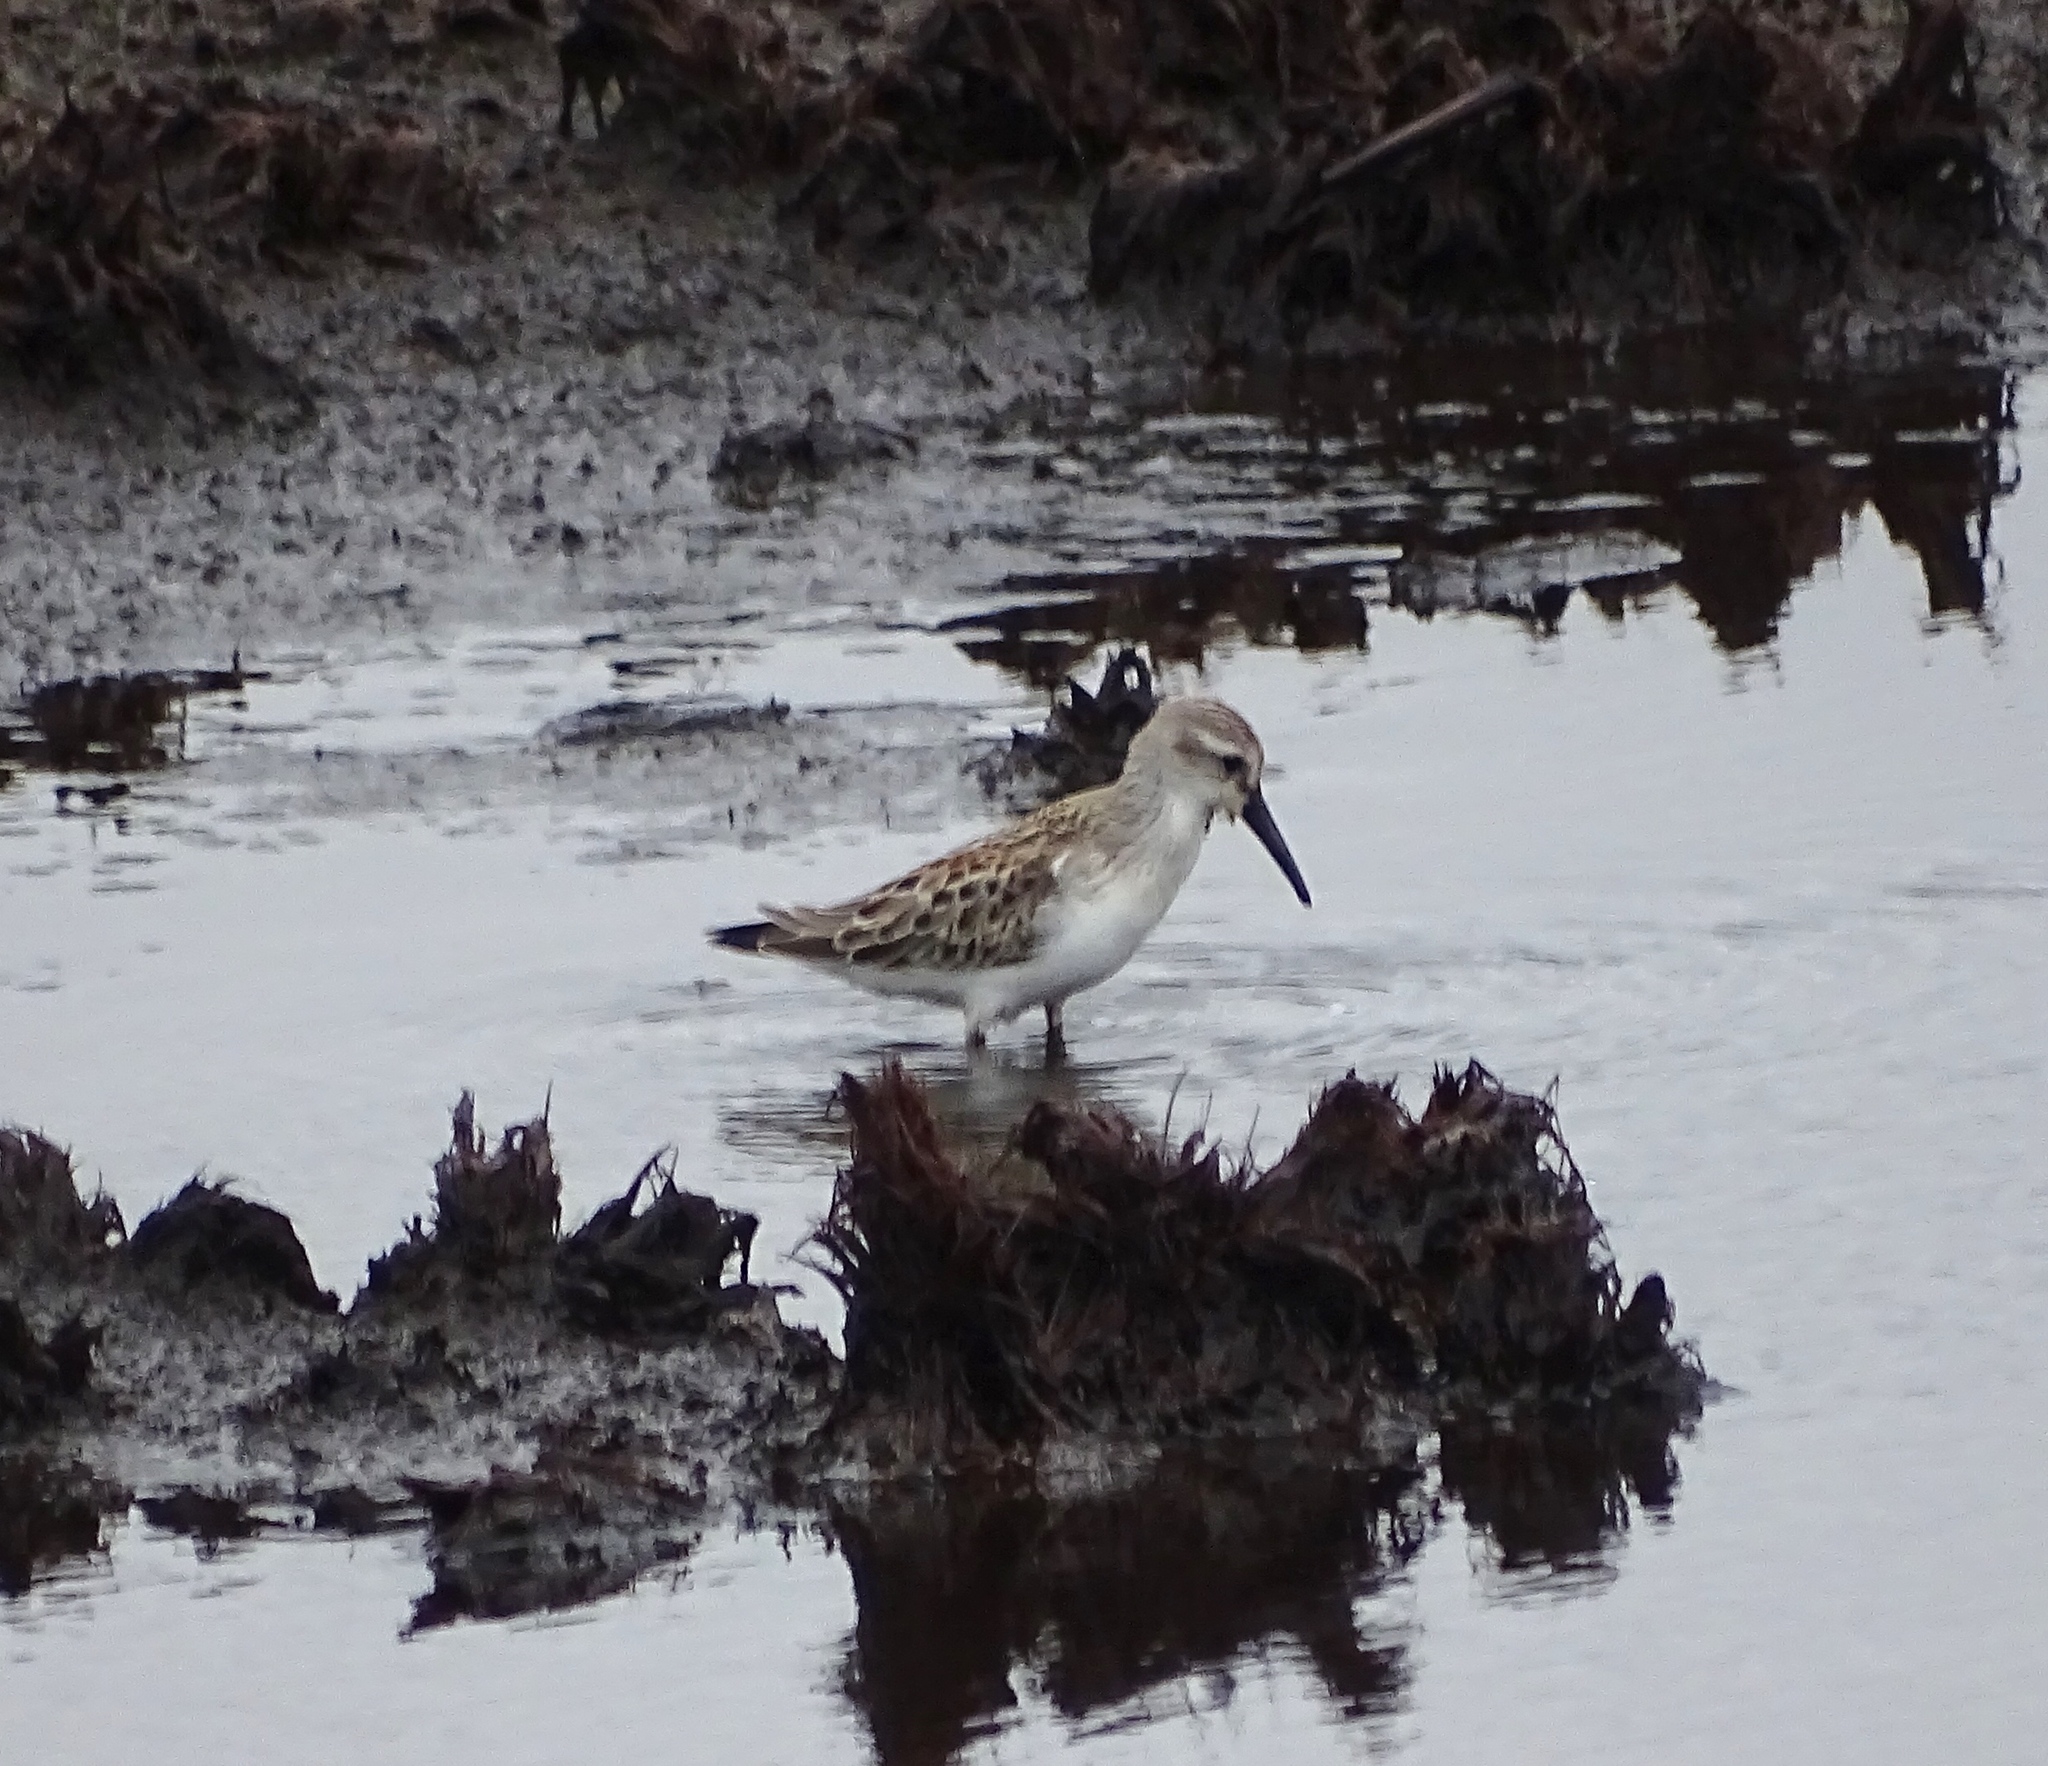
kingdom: Animalia
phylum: Chordata
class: Aves
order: Charadriiformes
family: Scolopacidae
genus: Calidris
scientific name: Calidris mauri
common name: Western sandpiper
